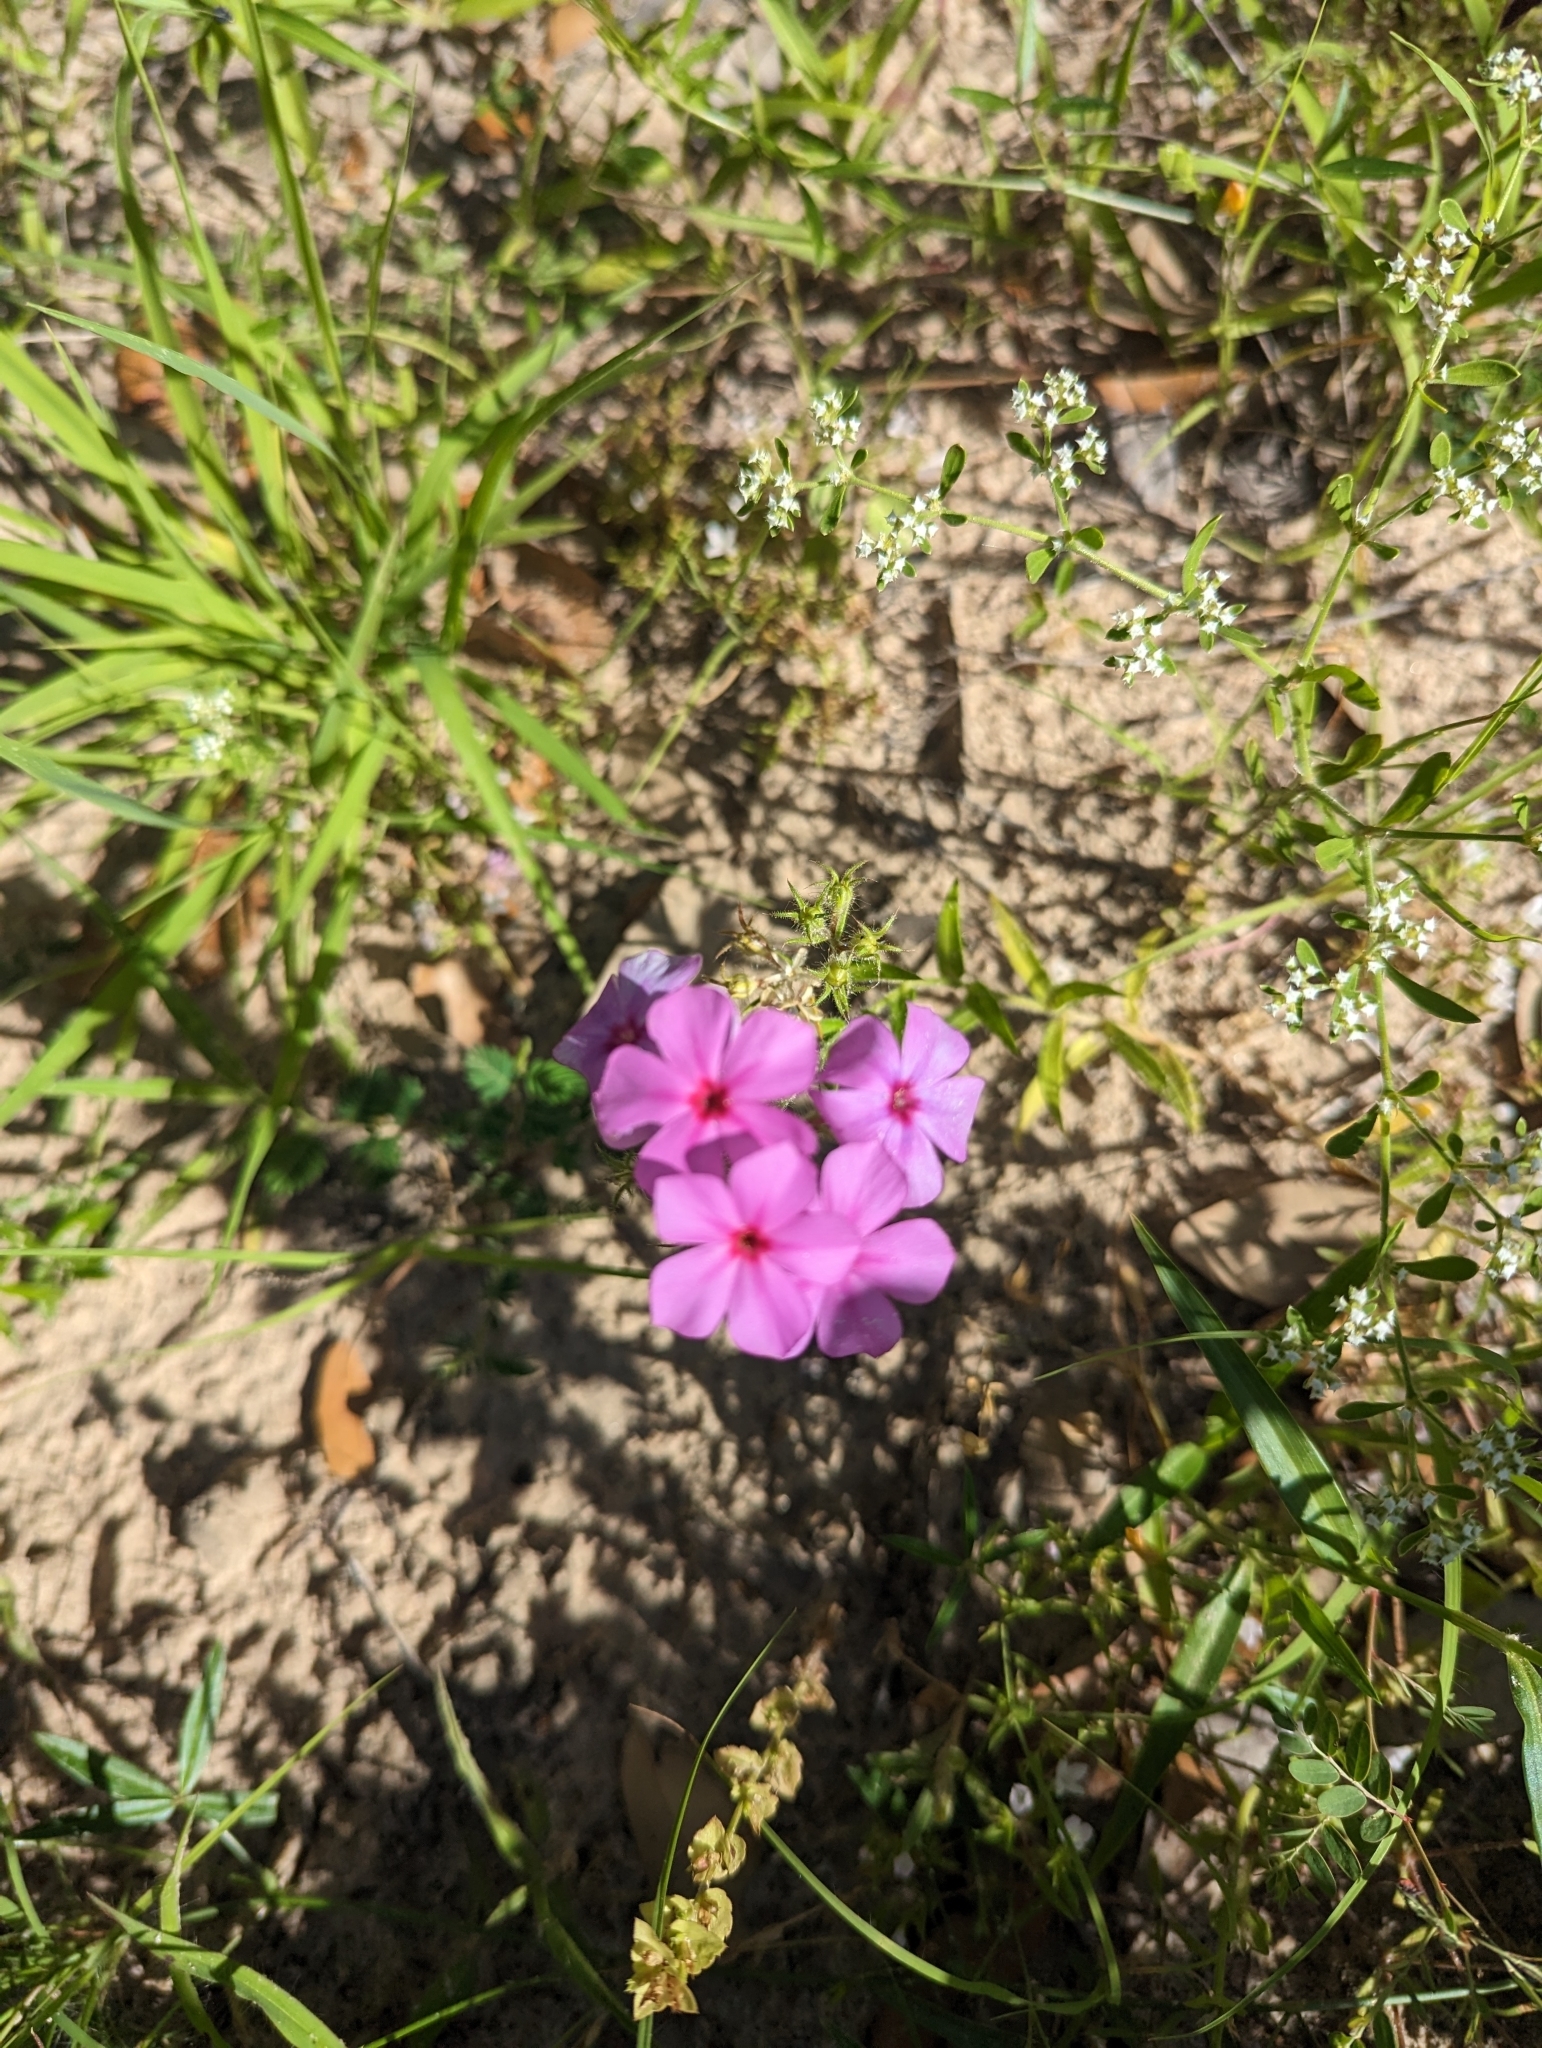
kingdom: Plantae
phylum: Tracheophyta
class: Magnoliopsida
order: Ericales
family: Polemoniaceae
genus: Phlox
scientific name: Phlox drummondii
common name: Drummond's phlox
